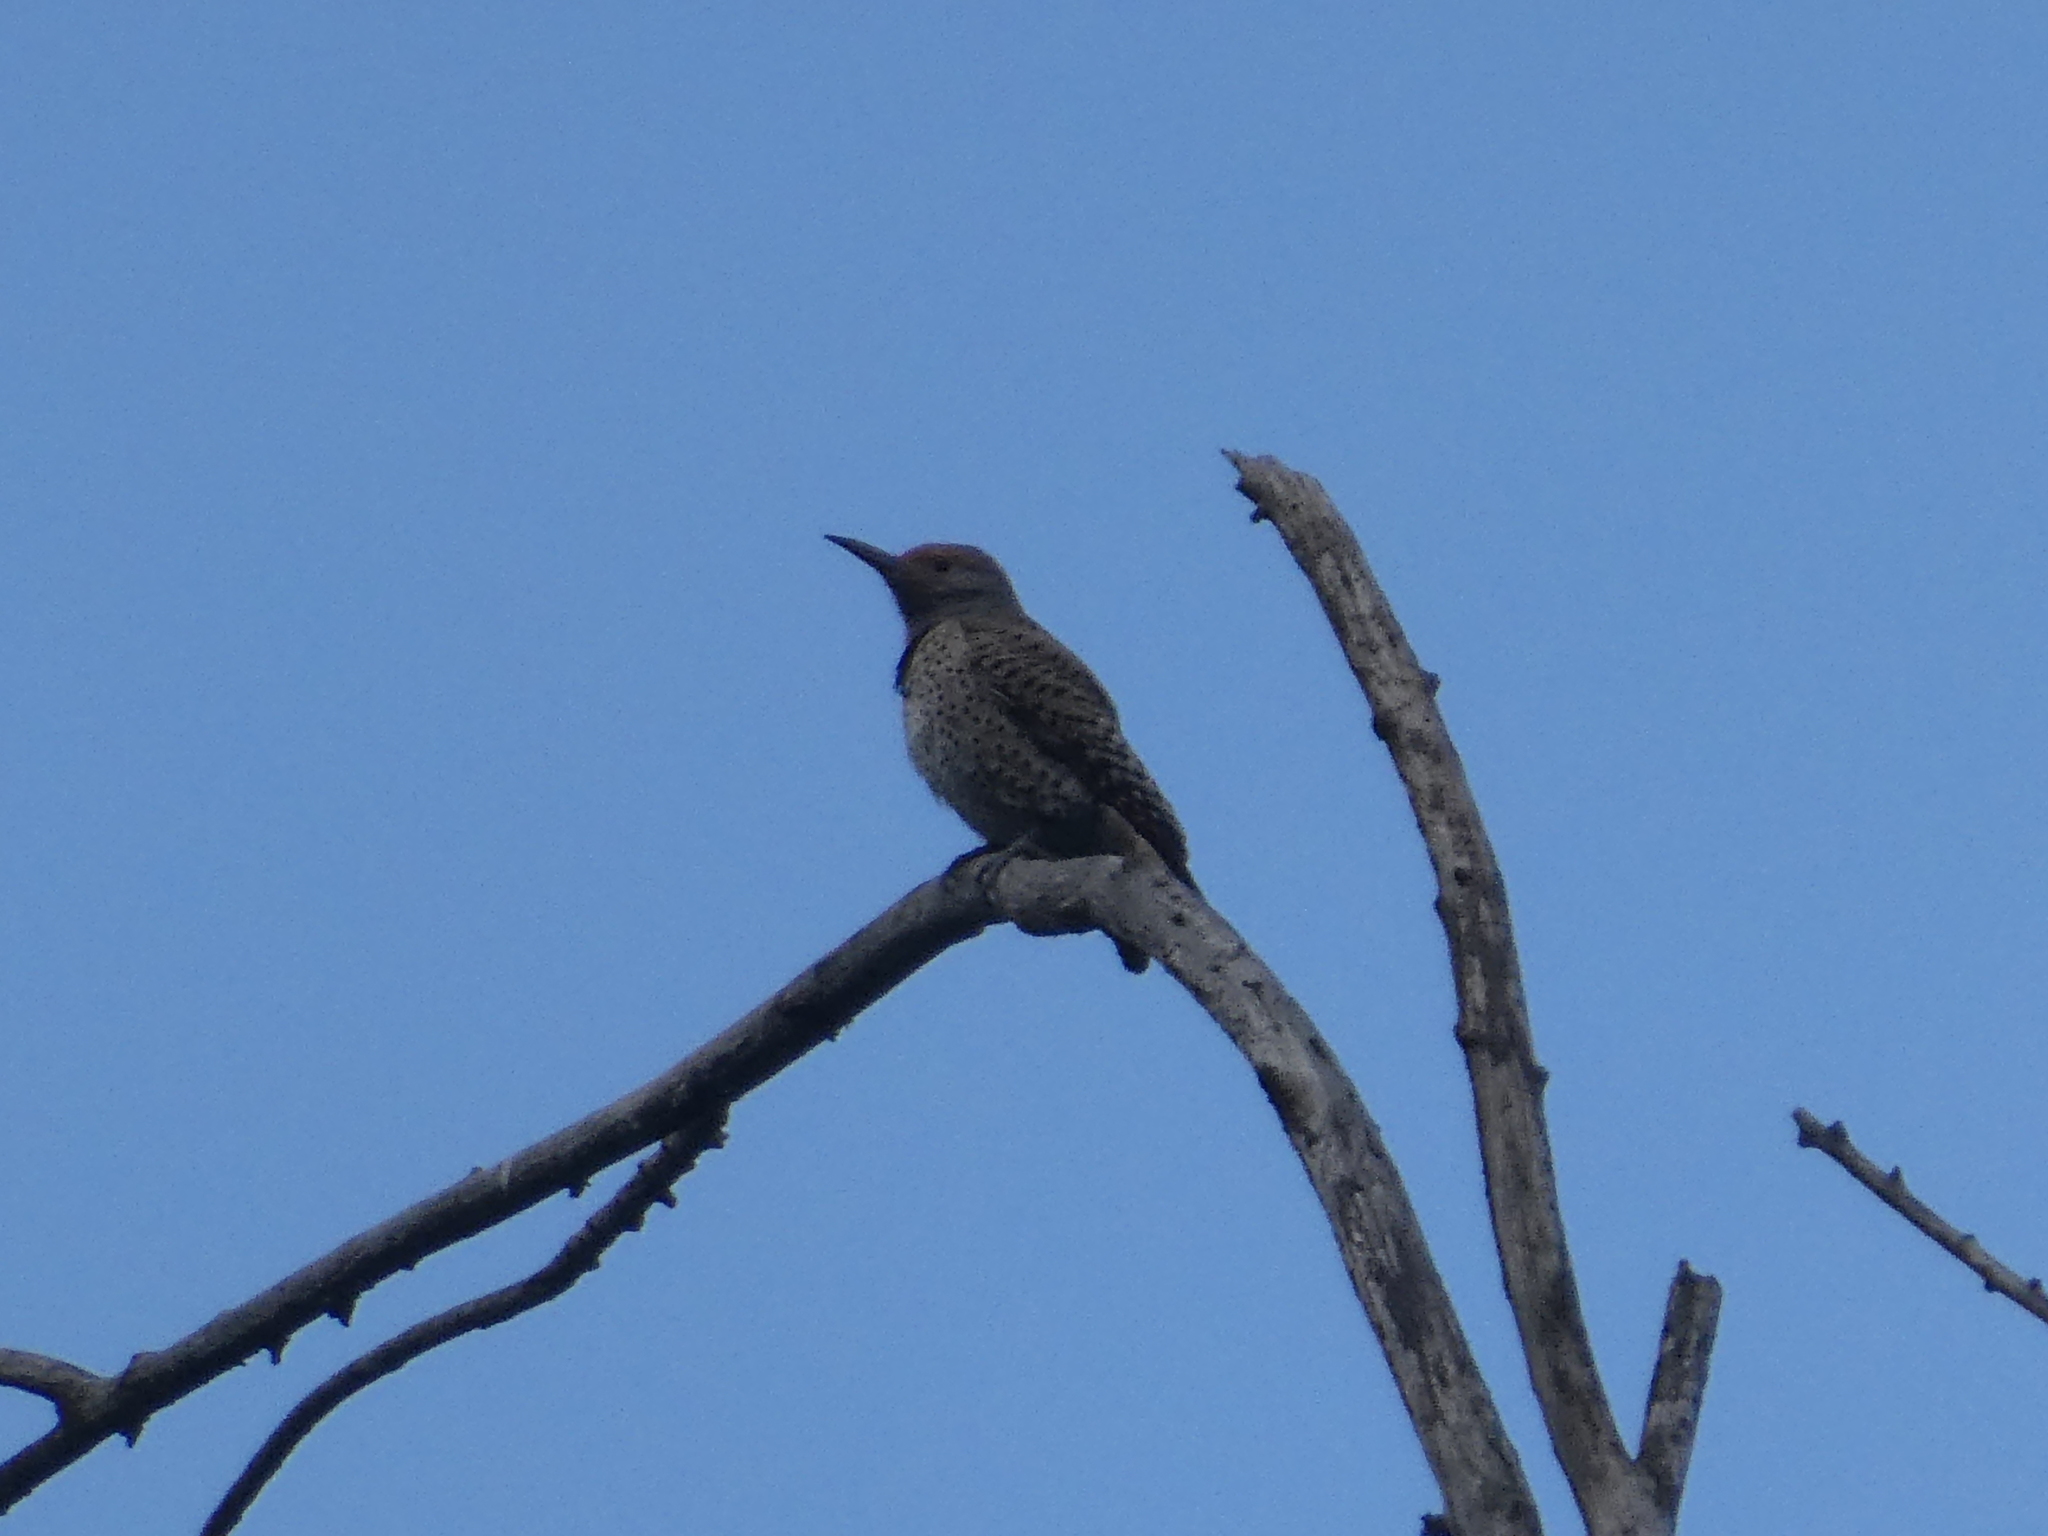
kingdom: Animalia
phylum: Chordata
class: Aves
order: Piciformes
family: Picidae
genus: Colaptes
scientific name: Colaptes auratus
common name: Northern flicker
